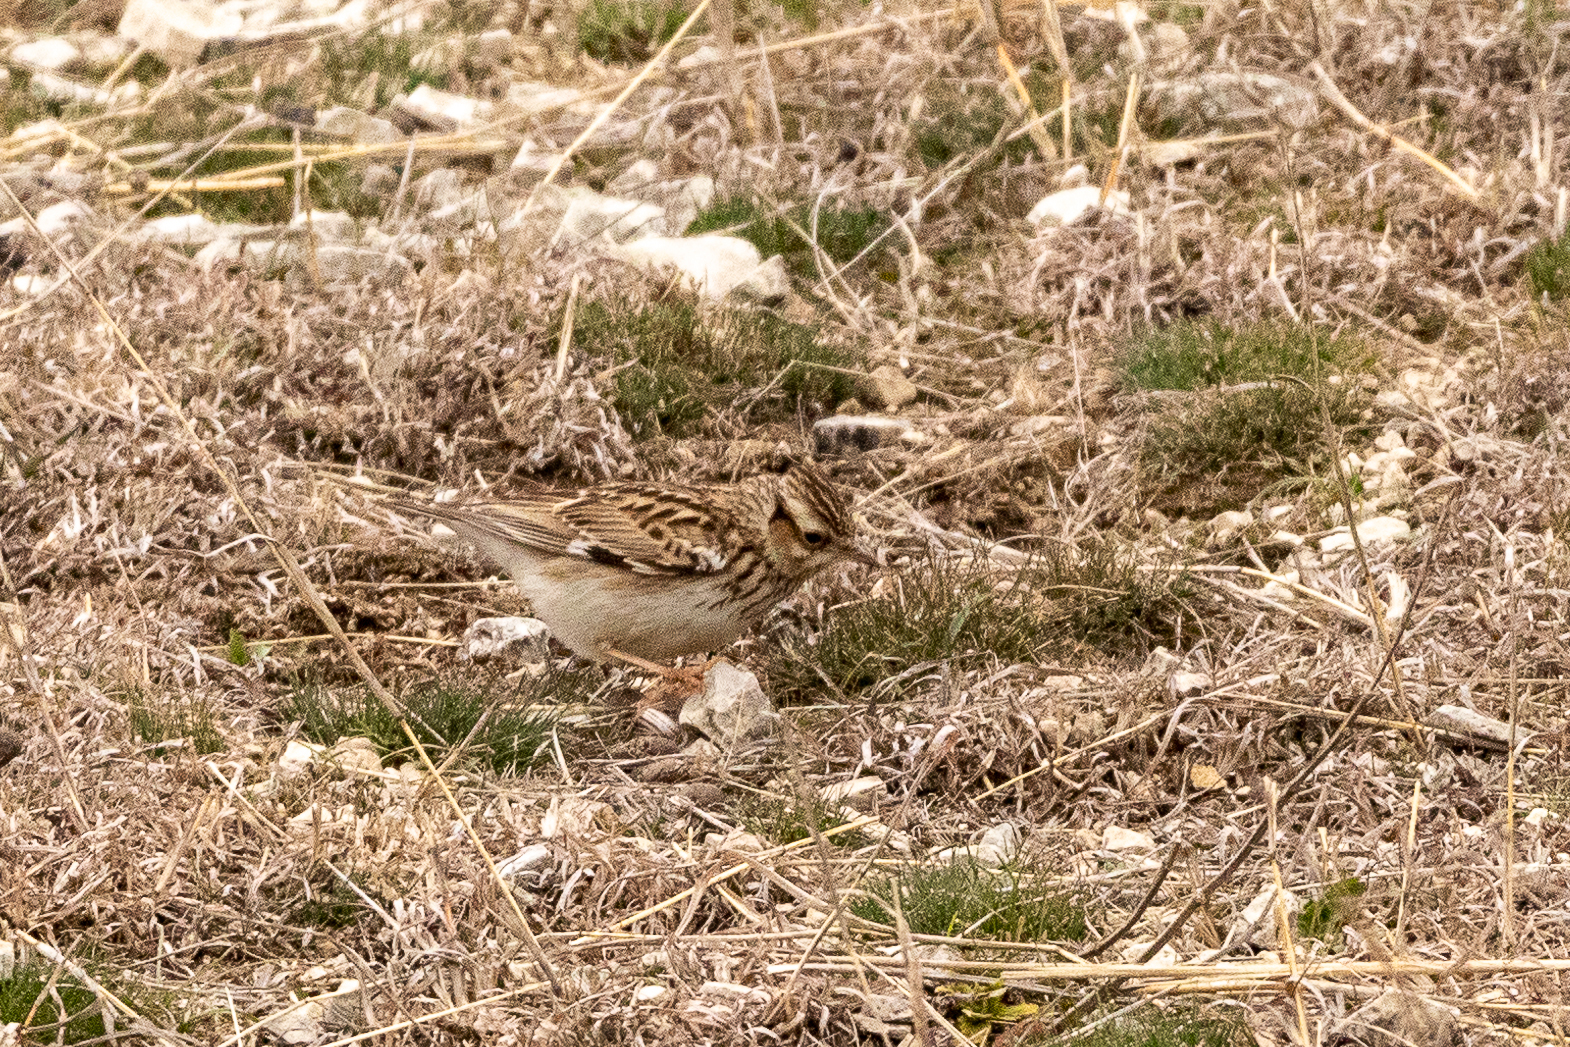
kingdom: Animalia
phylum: Chordata
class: Aves
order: Passeriformes
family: Alaudidae
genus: Lullula
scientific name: Lullula arborea
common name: Woodlark
